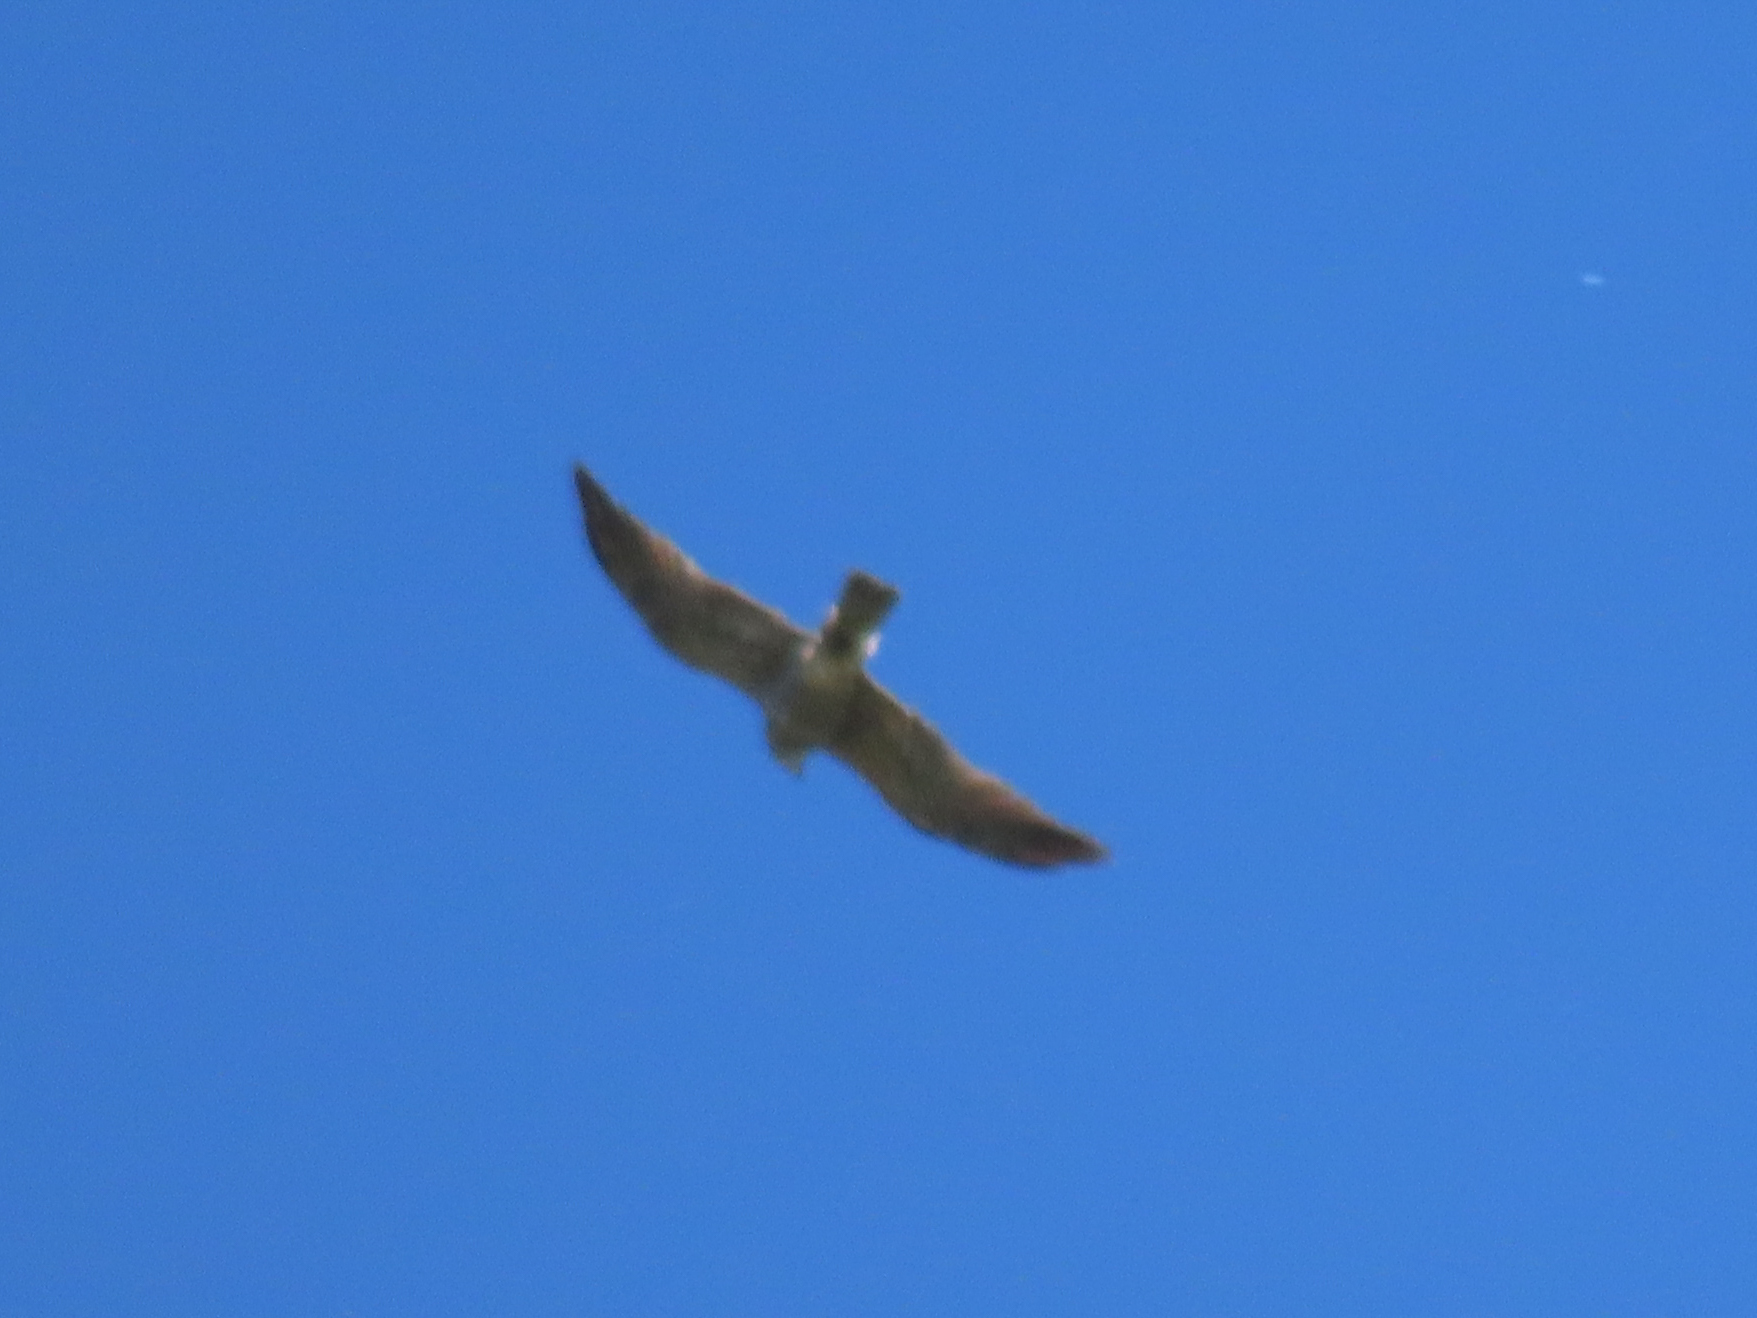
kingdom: Animalia
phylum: Chordata
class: Aves
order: Accipitriformes
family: Accipitridae
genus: Ictinia
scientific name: Ictinia mississippiensis
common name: Mississippi kite
